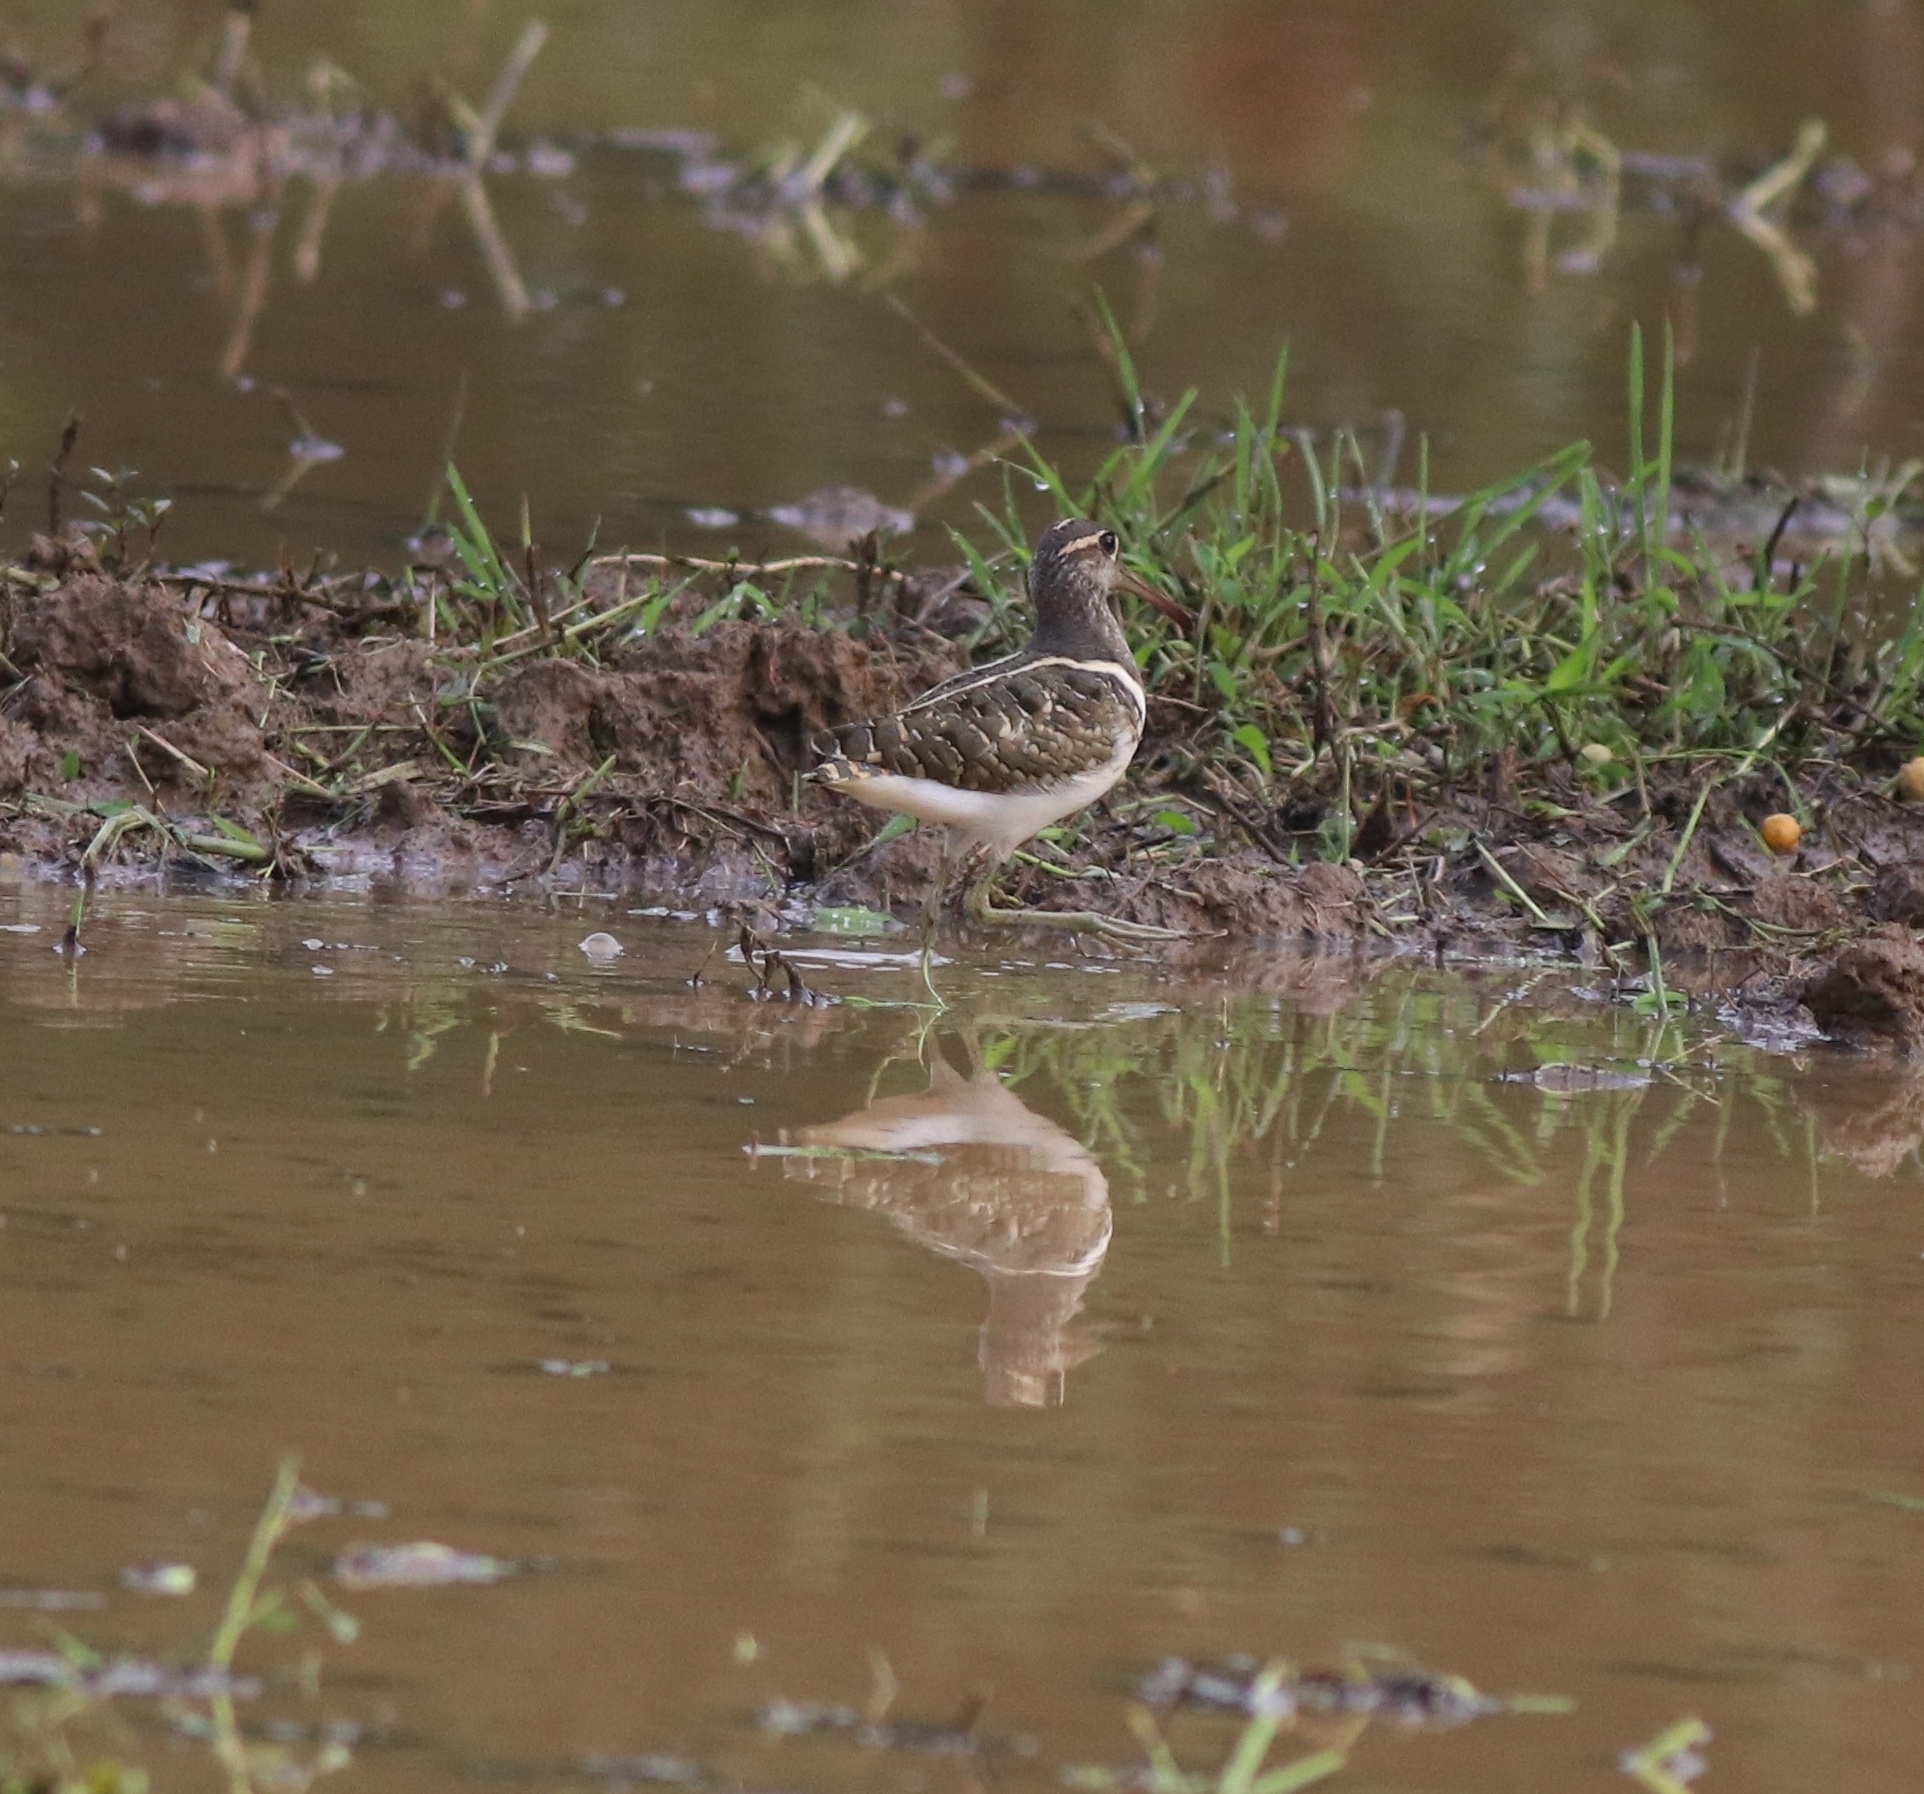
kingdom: Animalia
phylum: Chordata
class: Aves
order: Charadriiformes
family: Rostratulidae
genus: Rostratula
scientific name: Rostratula benghalensis
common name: Greater painted-snipe
